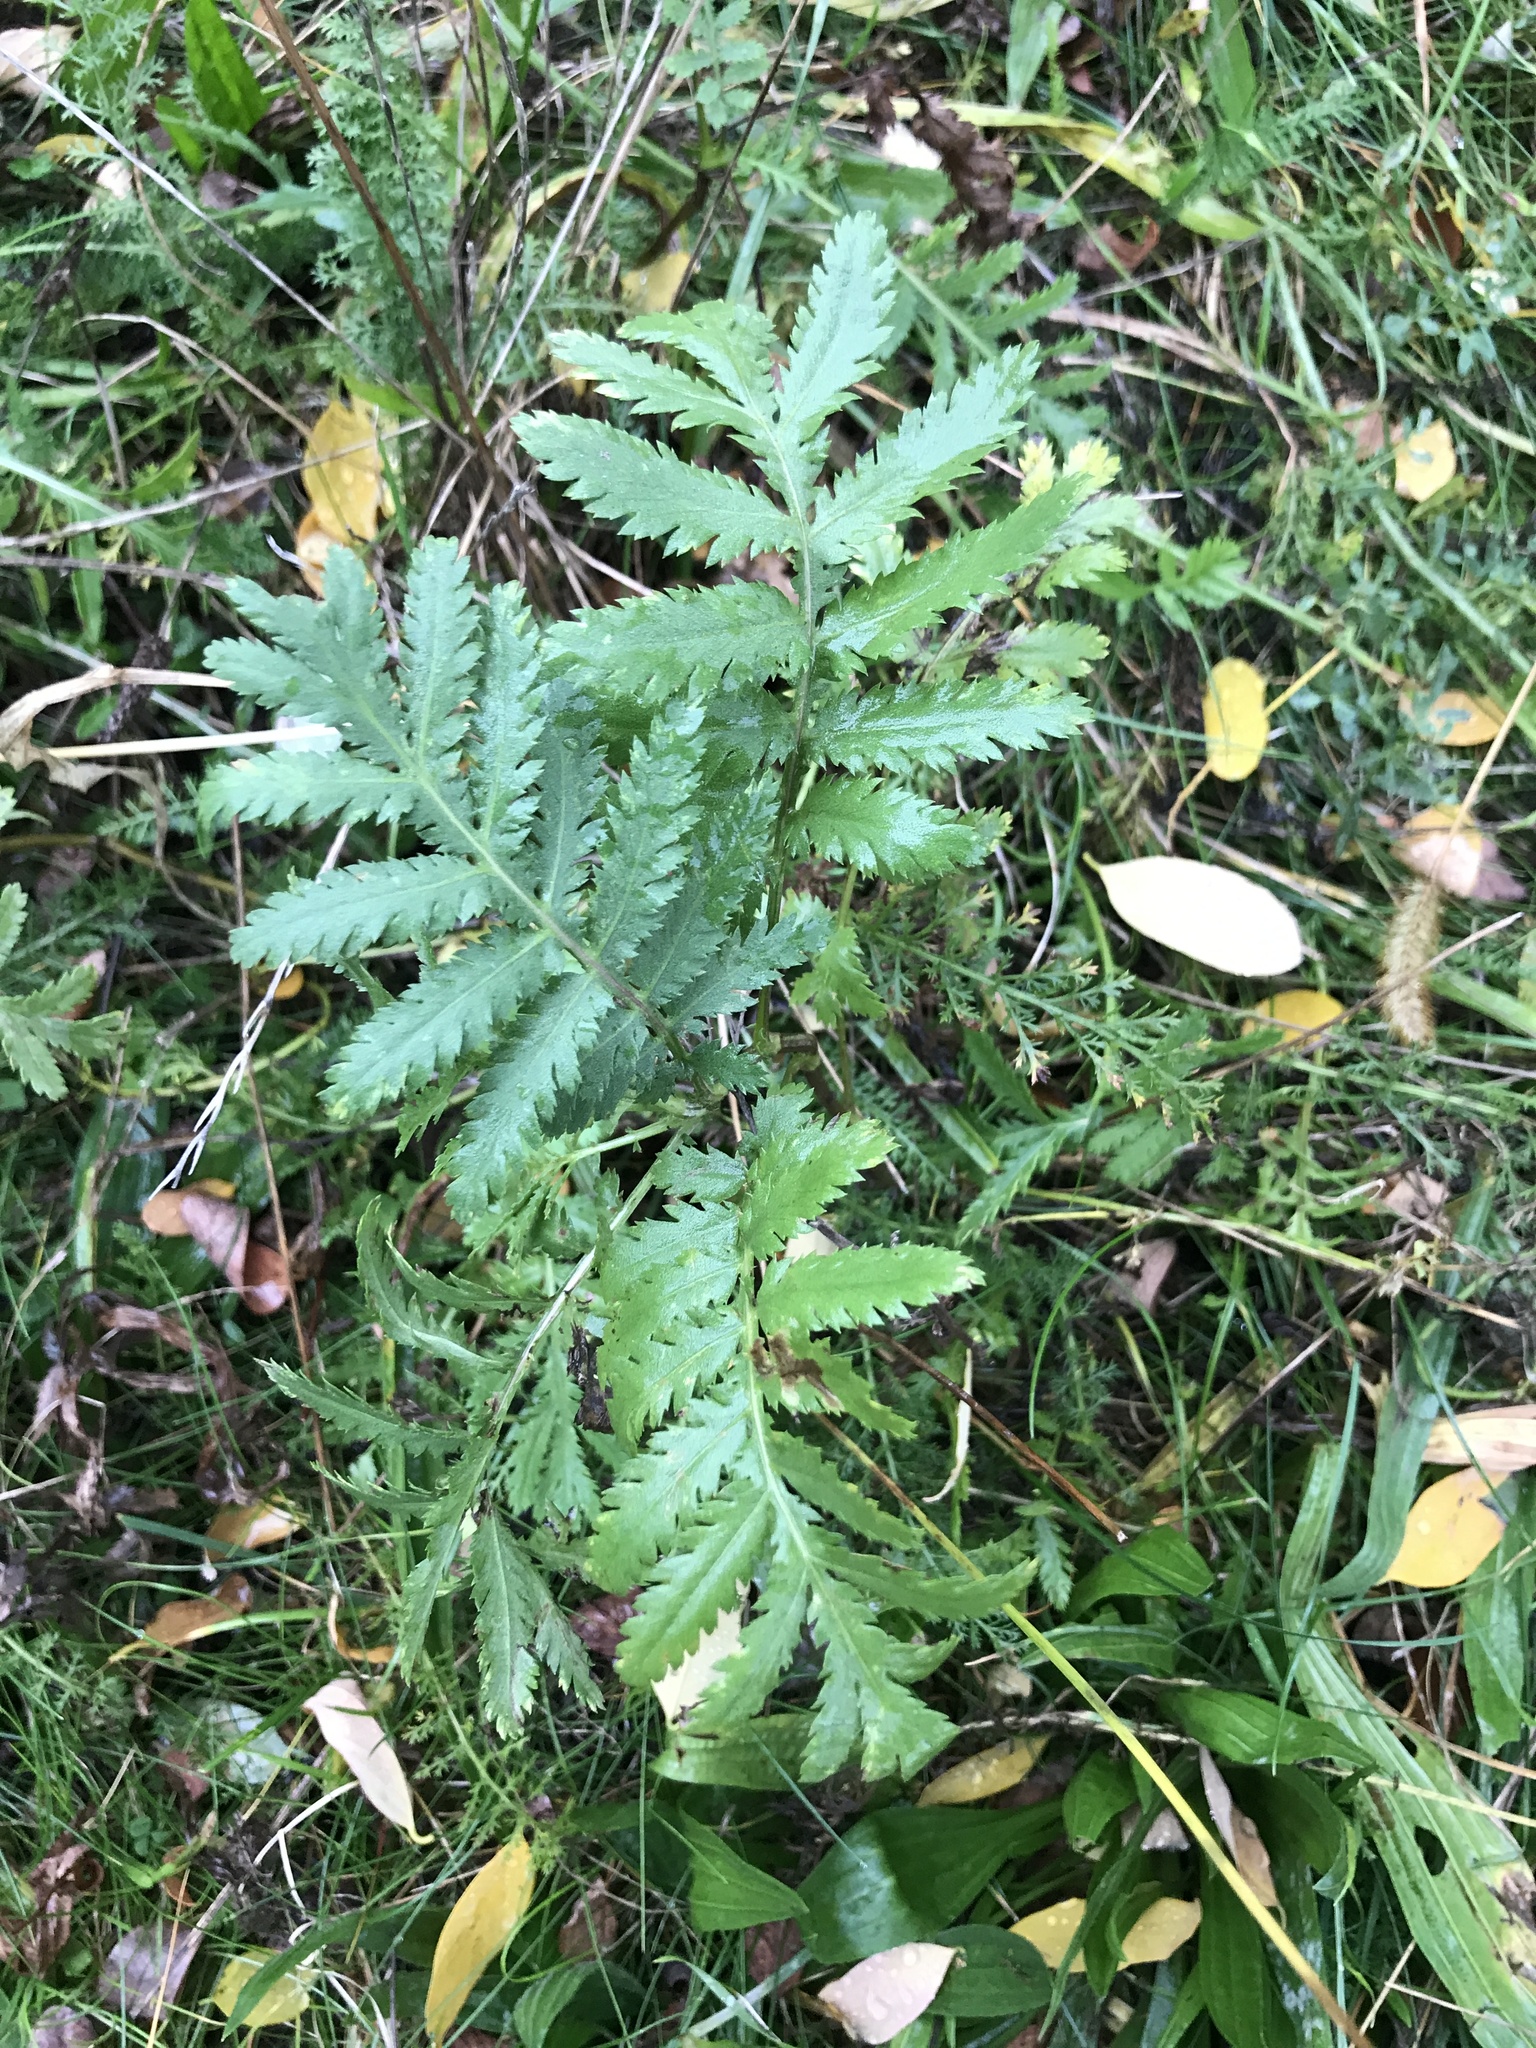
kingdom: Plantae
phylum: Tracheophyta
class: Magnoliopsida
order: Asterales
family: Asteraceae
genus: Tanacetum
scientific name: Tanacetum vulgare
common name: Common tansy
